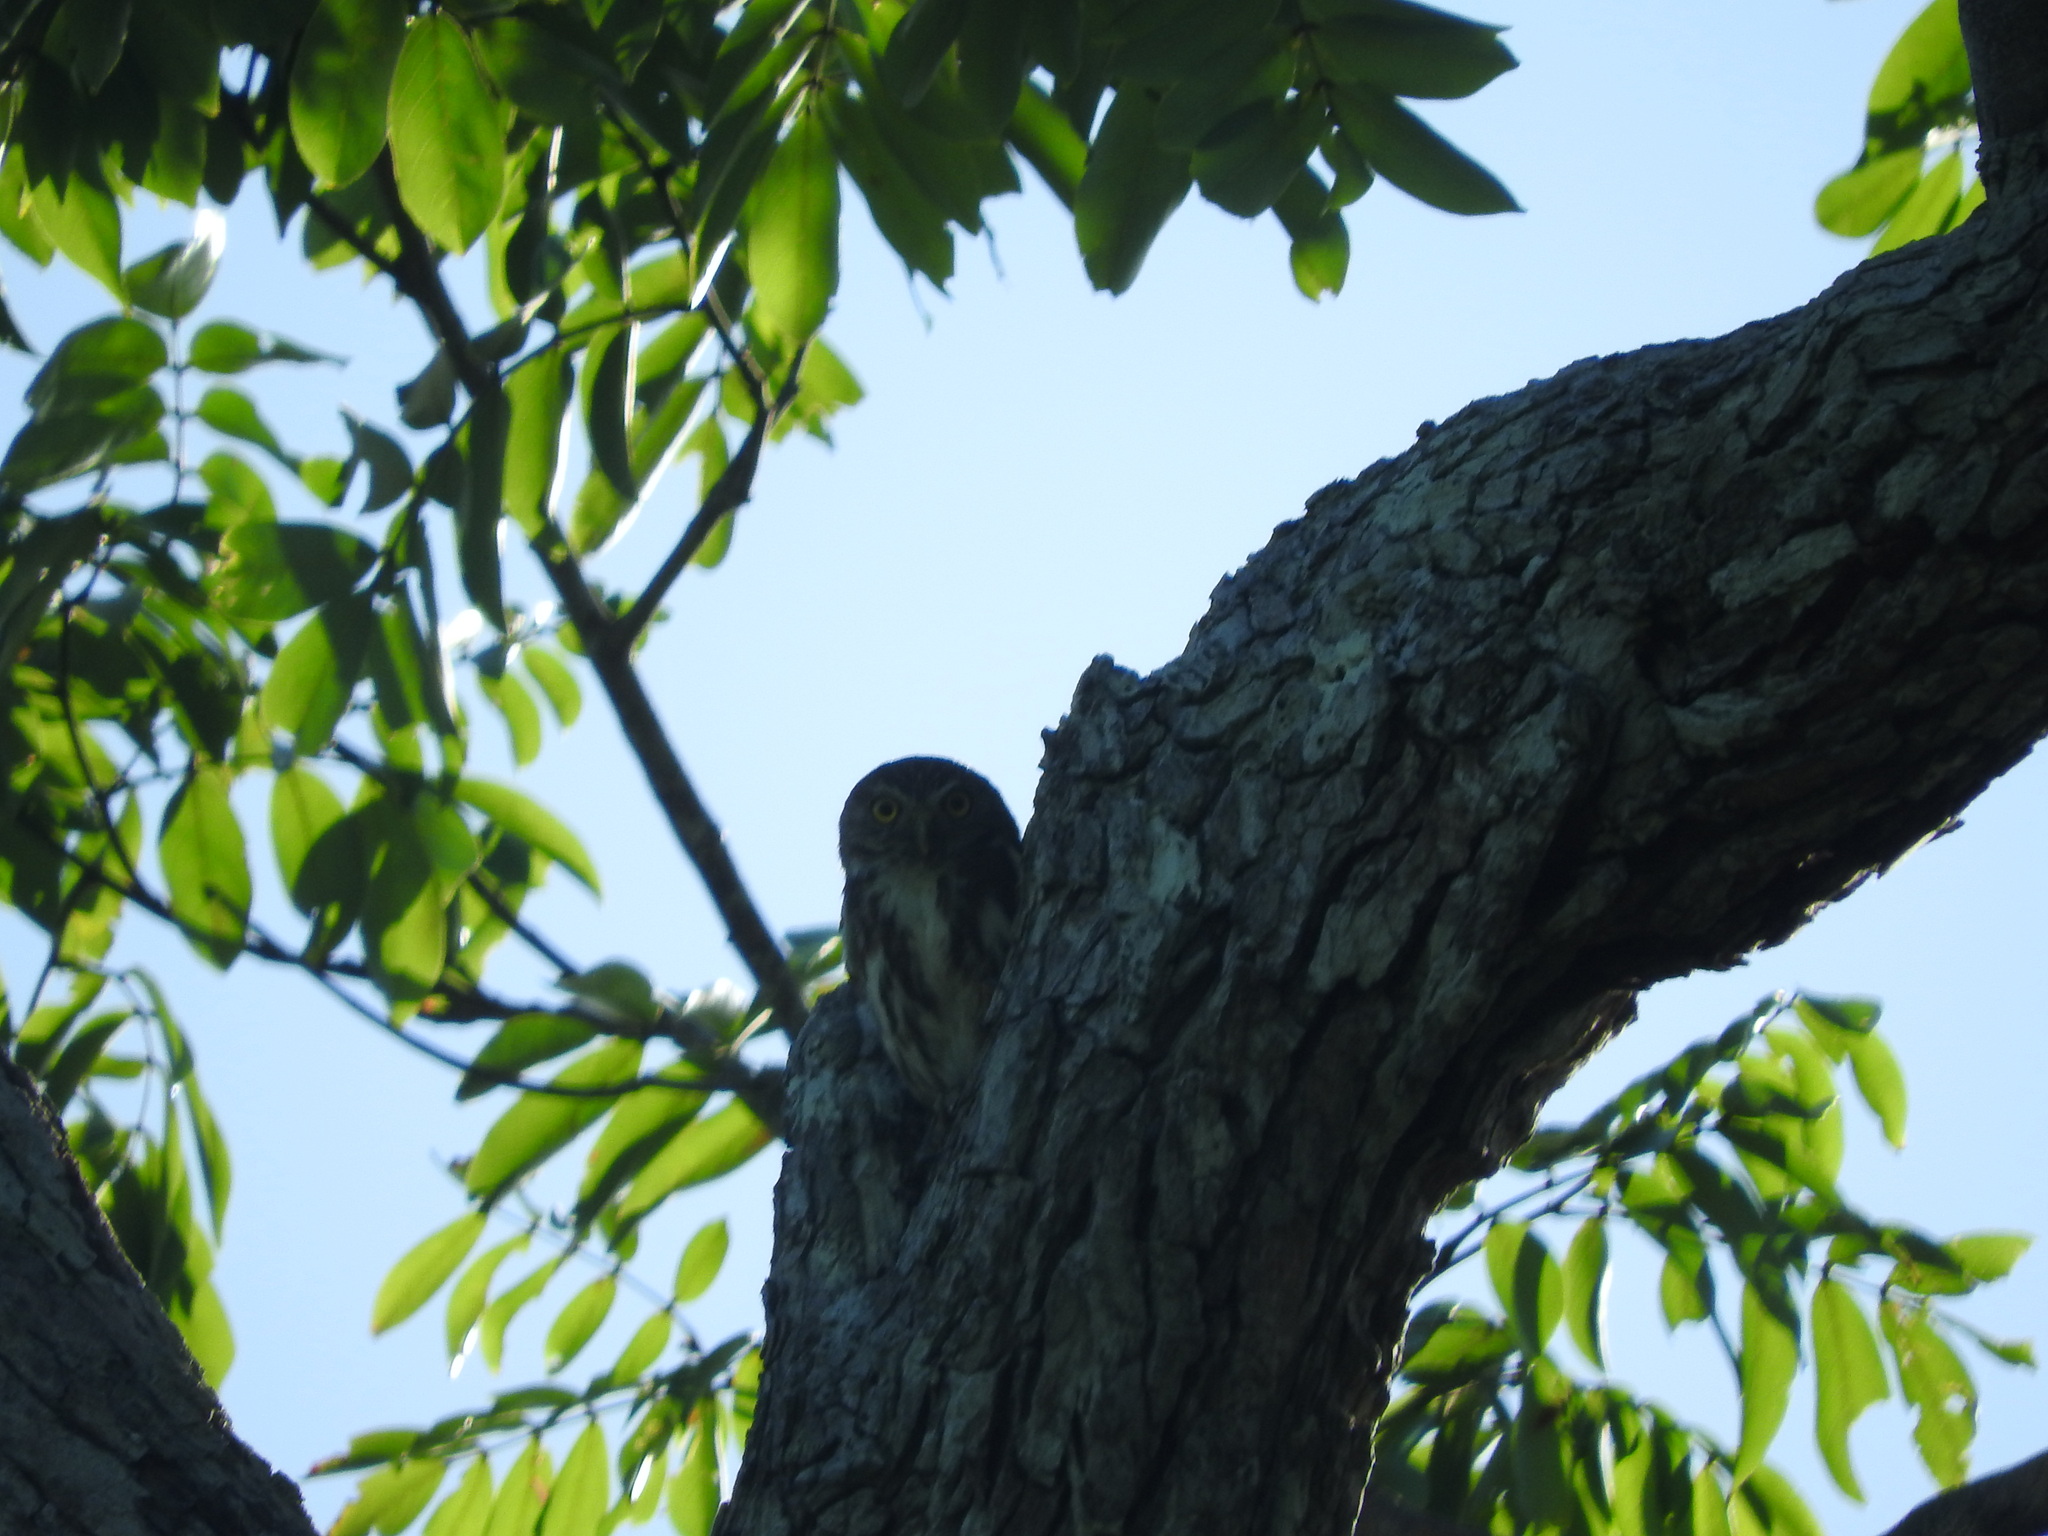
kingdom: Animalia
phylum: Chordata
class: Aves
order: Strigiformes
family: Strigidae
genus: Glaucidium
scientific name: Glaucidium brasilianum
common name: Ferruginous pygmy-owl
